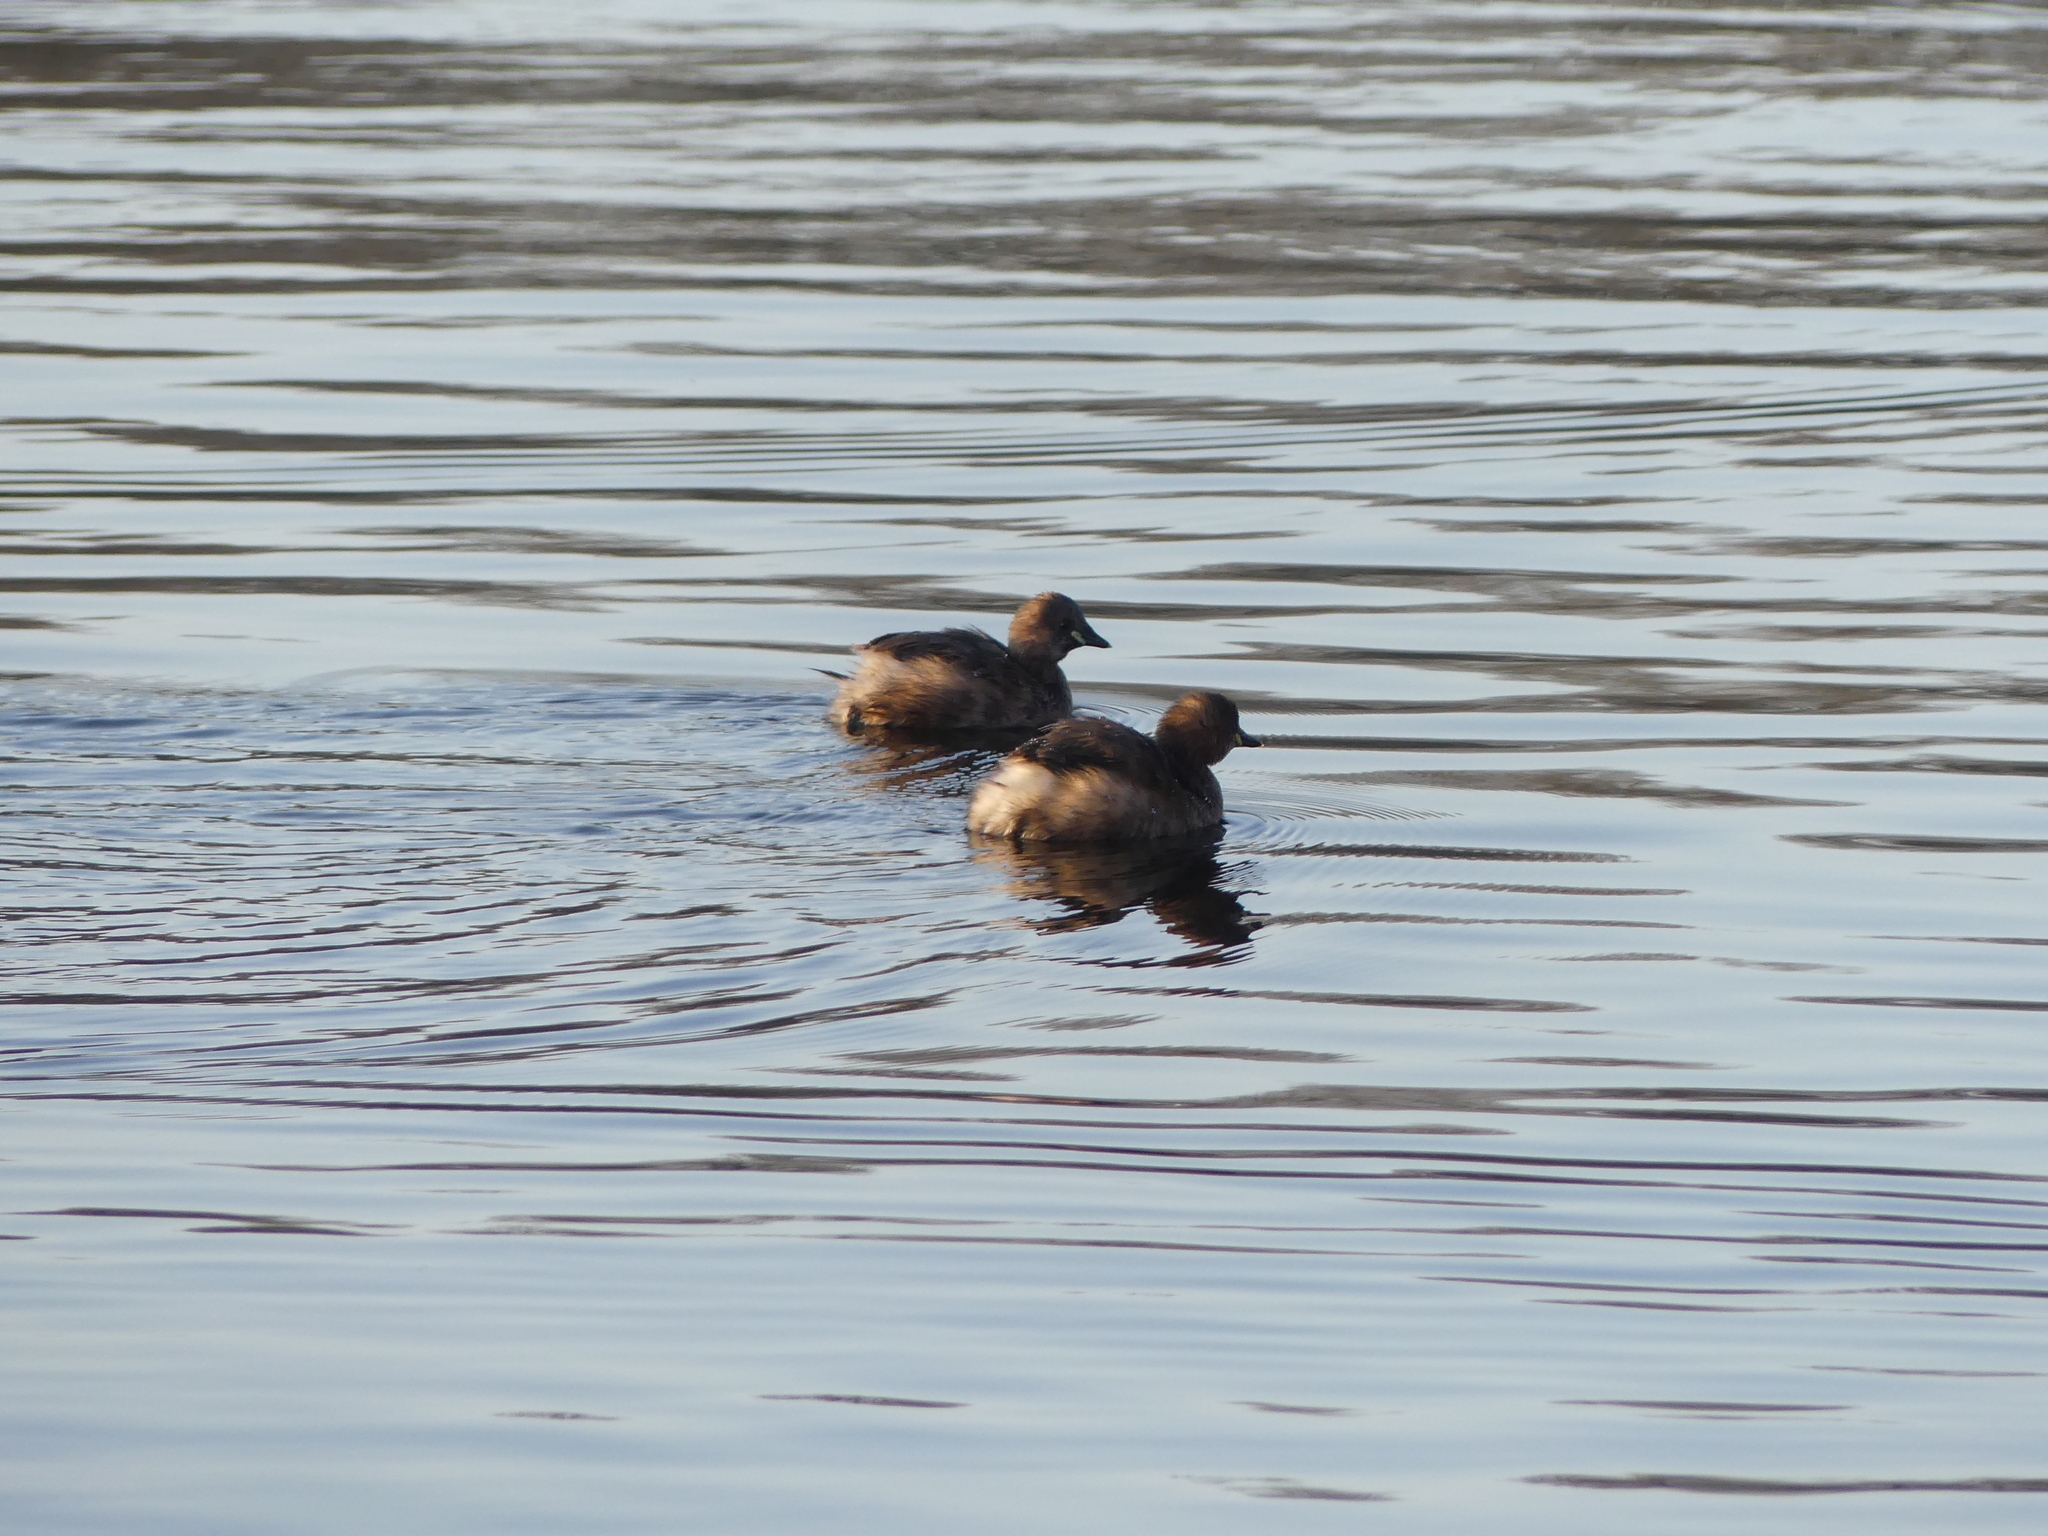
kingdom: Animalia
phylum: Chordata
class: Aves
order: Podicipediformes
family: Podicipedidae
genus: Tachybaptus
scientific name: Tachybaptus ruficollis
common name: Little grebe
